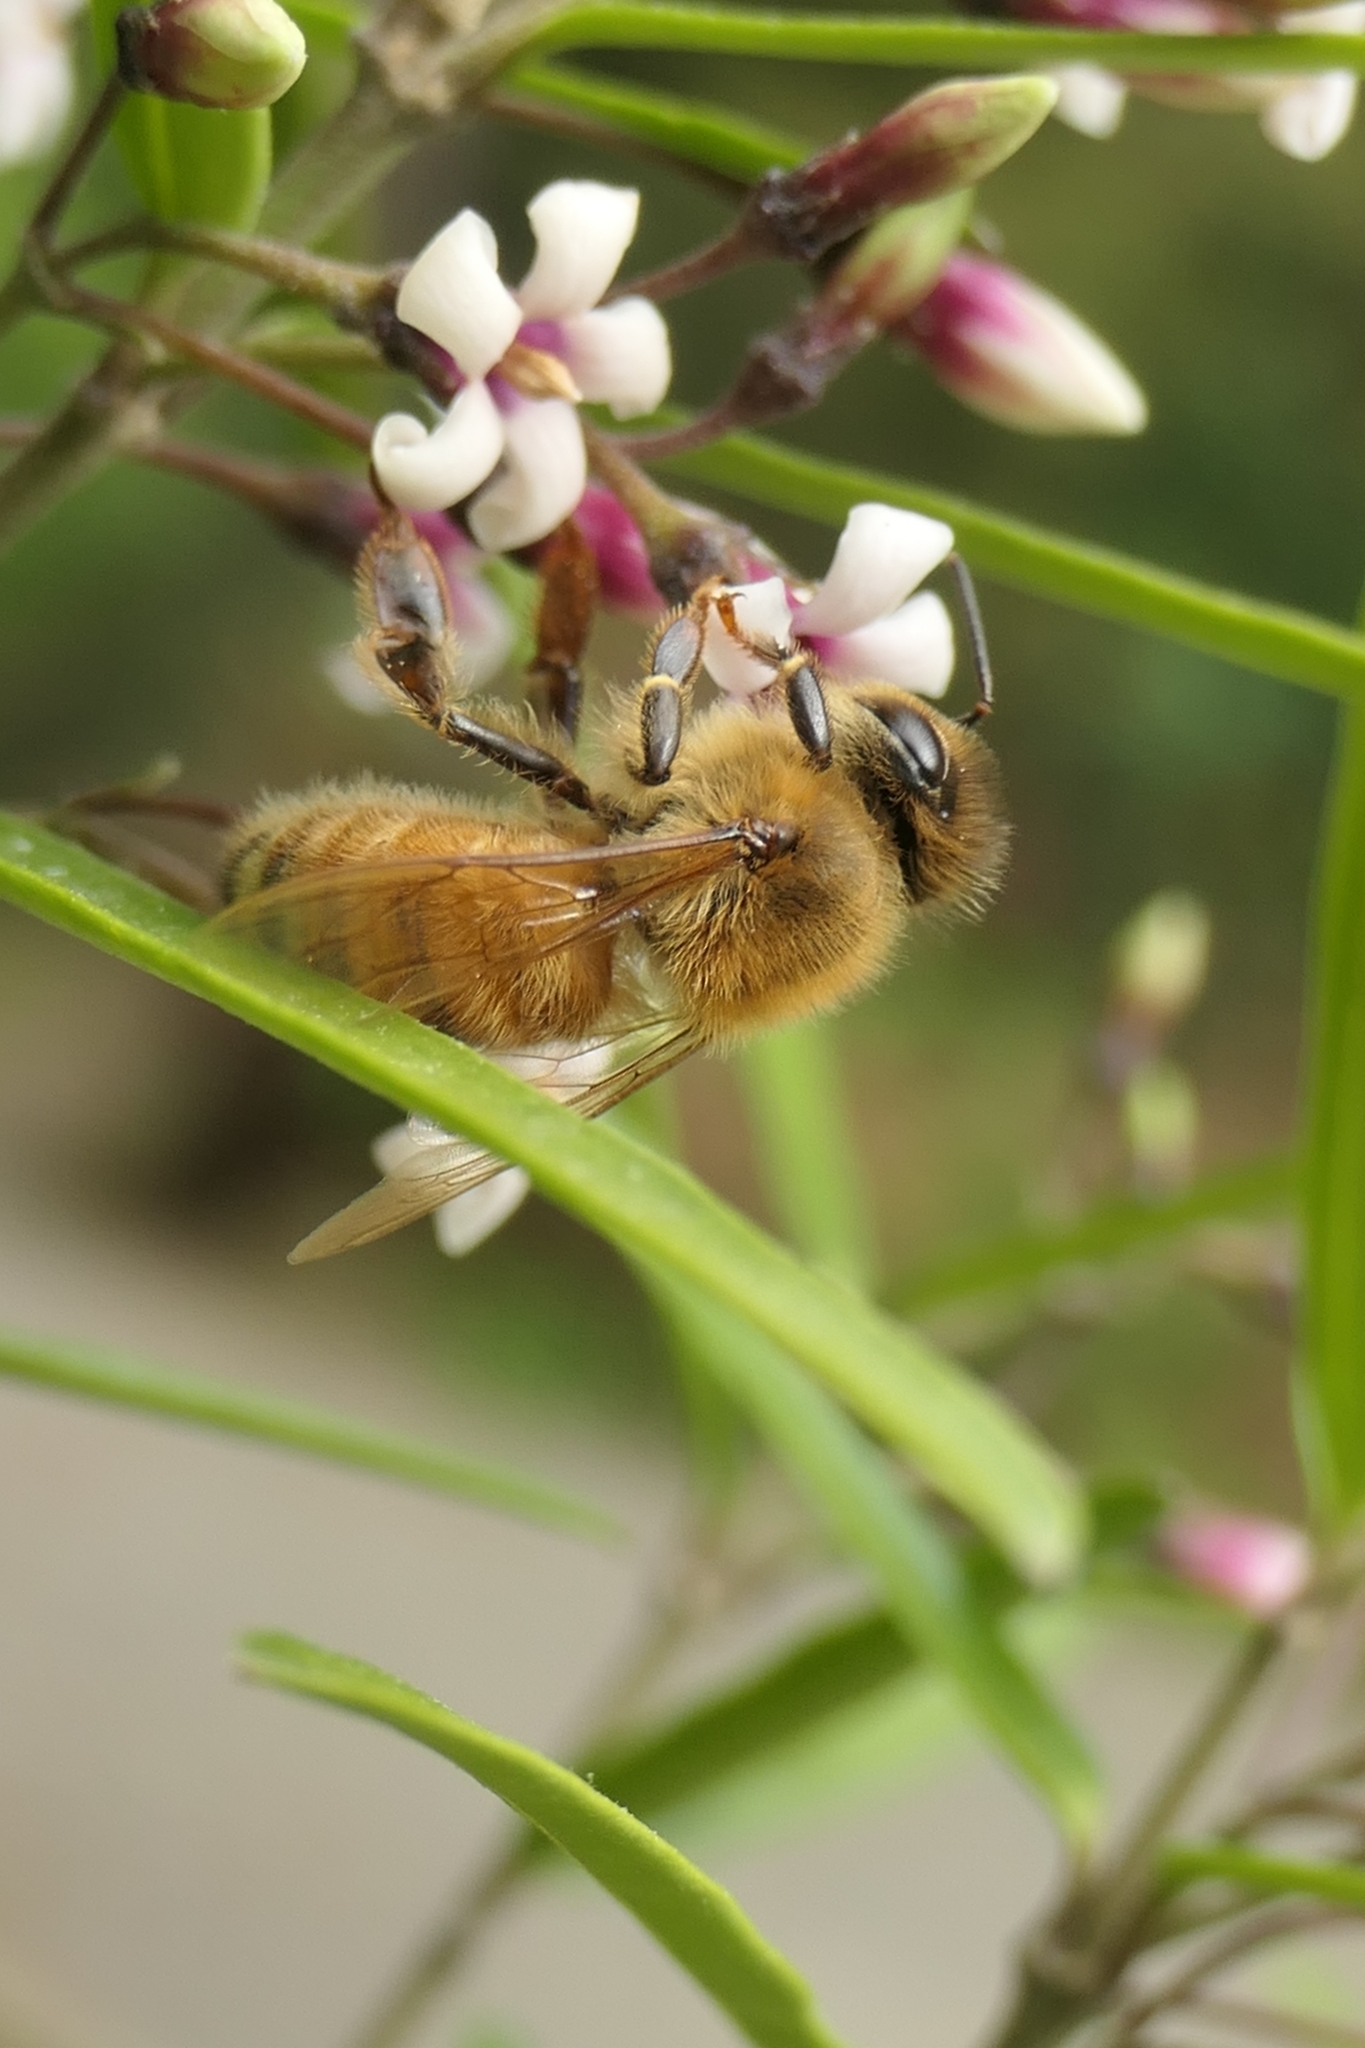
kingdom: Animalia
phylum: Arthropoda
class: Insecta
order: Hymenoptera
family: Apidae
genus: Apis
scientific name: Apis mellifera
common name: Honey bee
